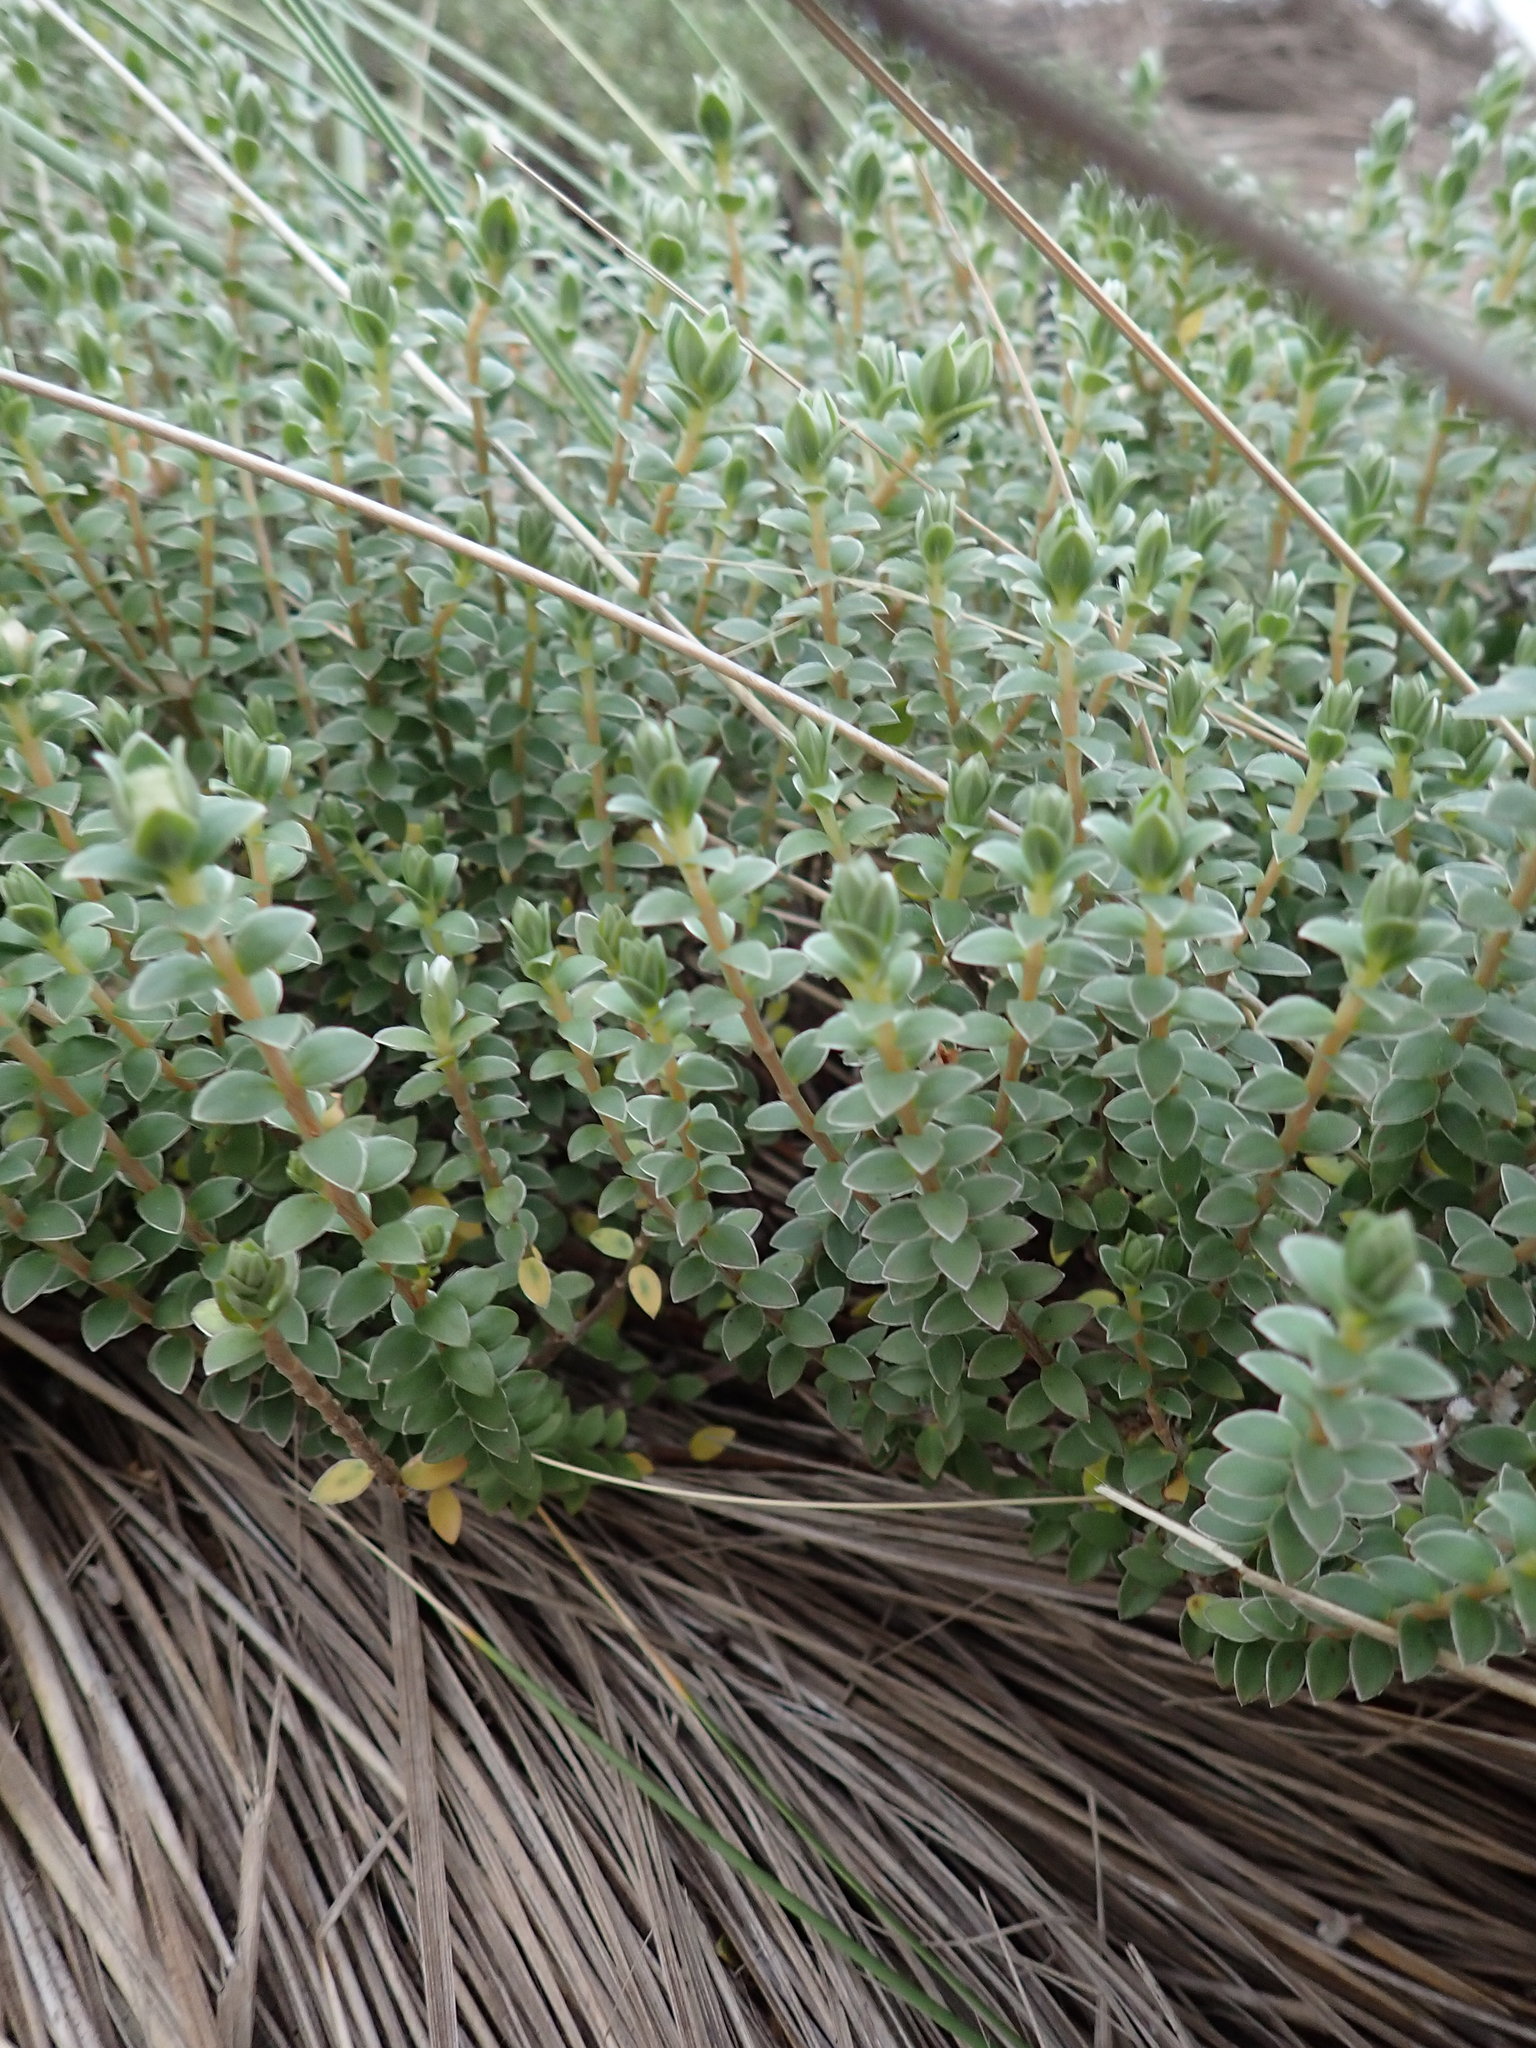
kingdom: Plantae
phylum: Tracheophyta
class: Magnoliopsida
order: Malvales
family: Thymelaeaceae
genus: Pimelea
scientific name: Pimelea villosa
